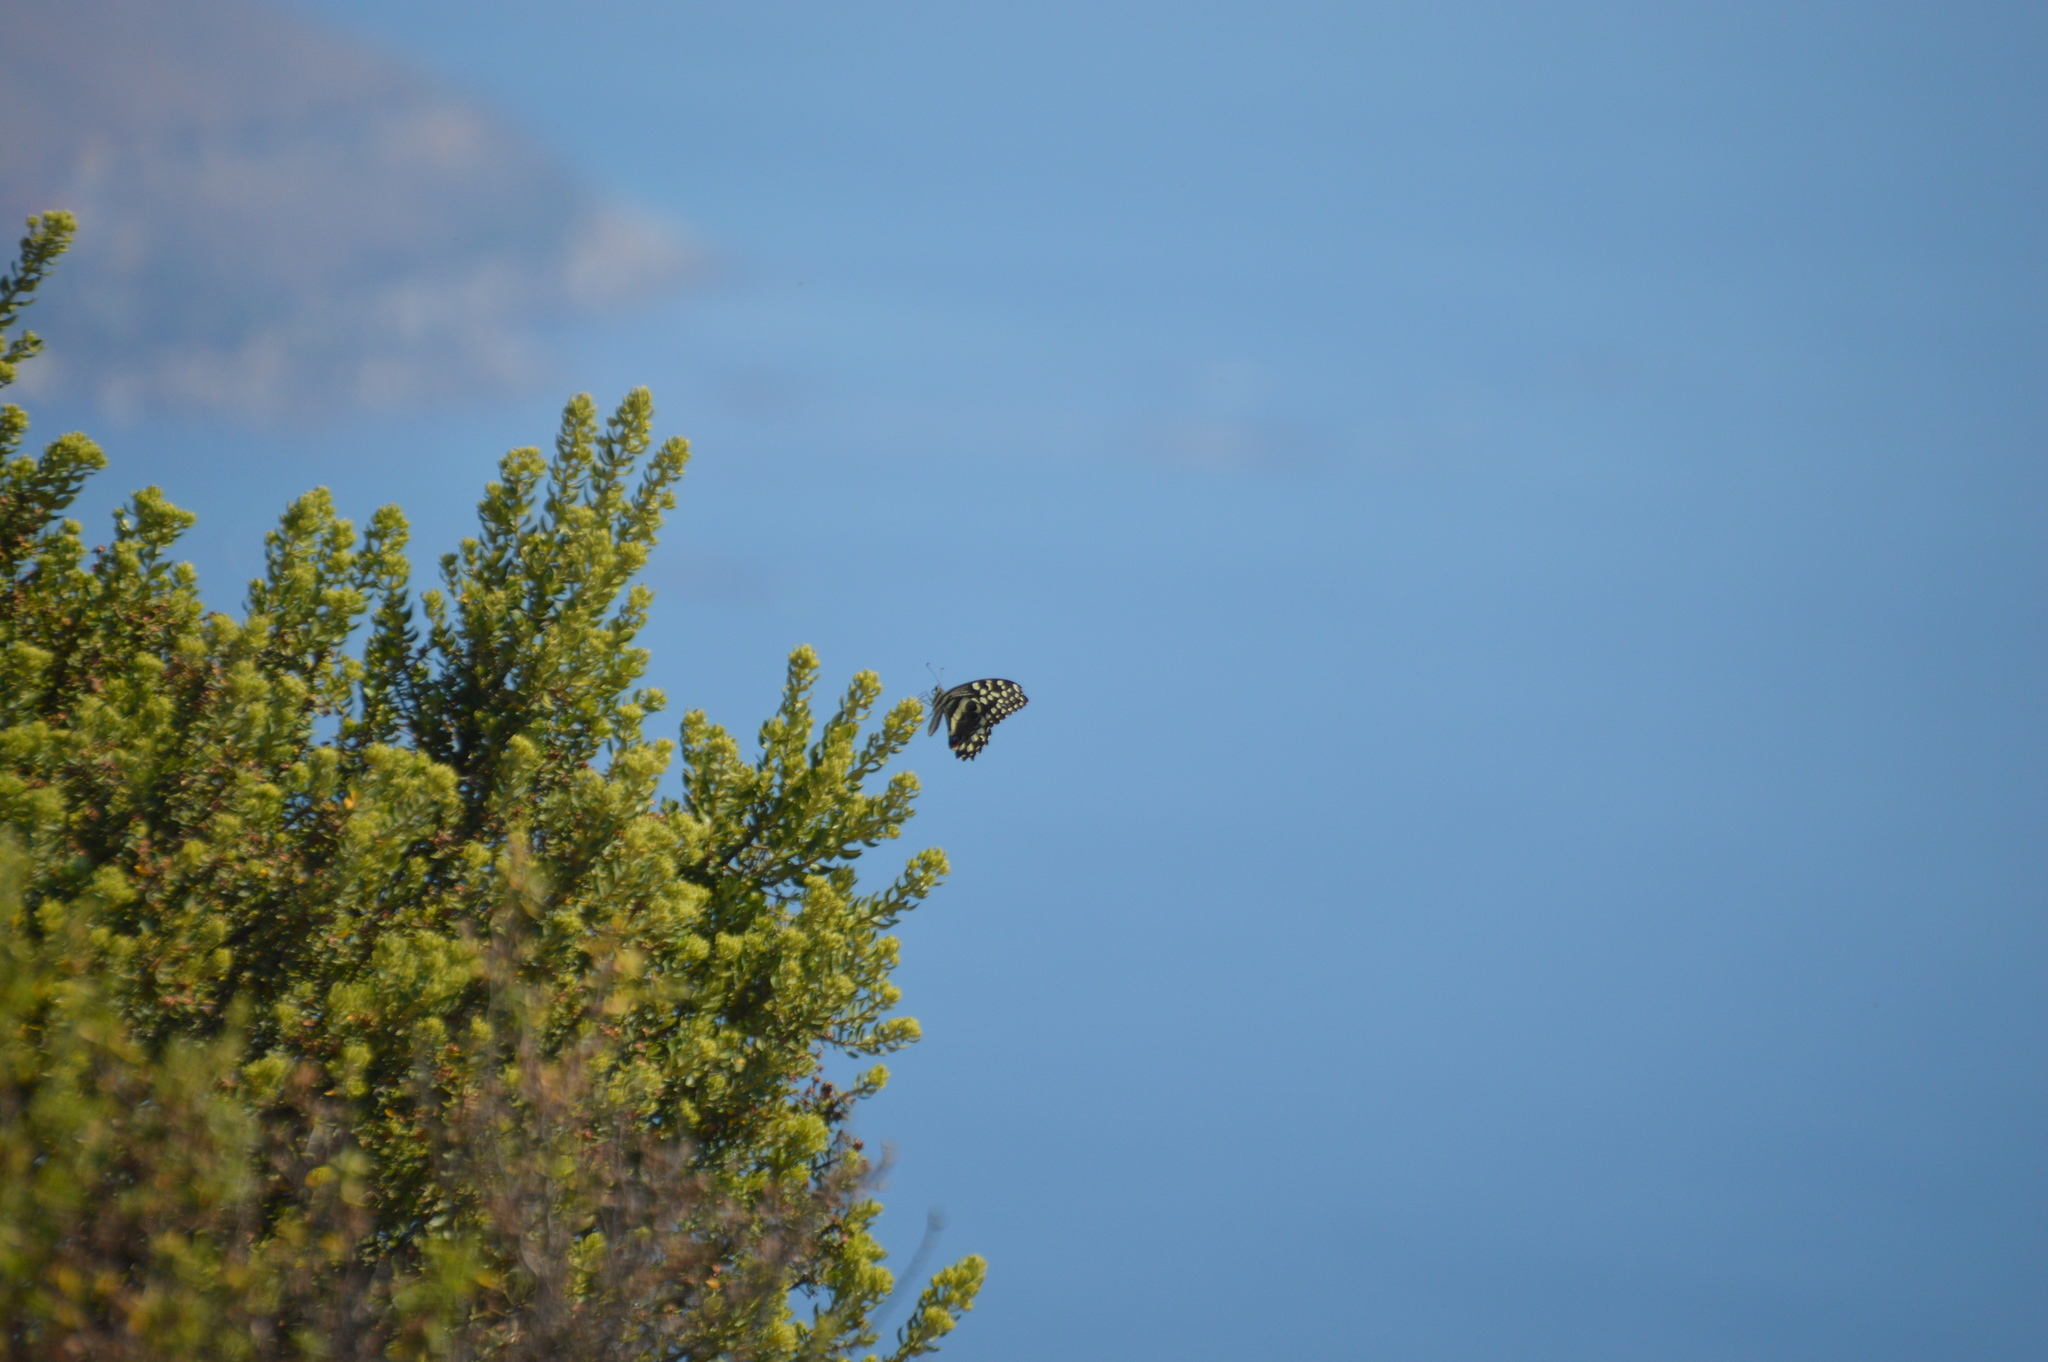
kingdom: Animalia
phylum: Arthropoda
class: Insecta
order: Lepidoptera
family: Papilionidae
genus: Papilio
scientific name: Papilio demodocus
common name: Christmas butterfly
